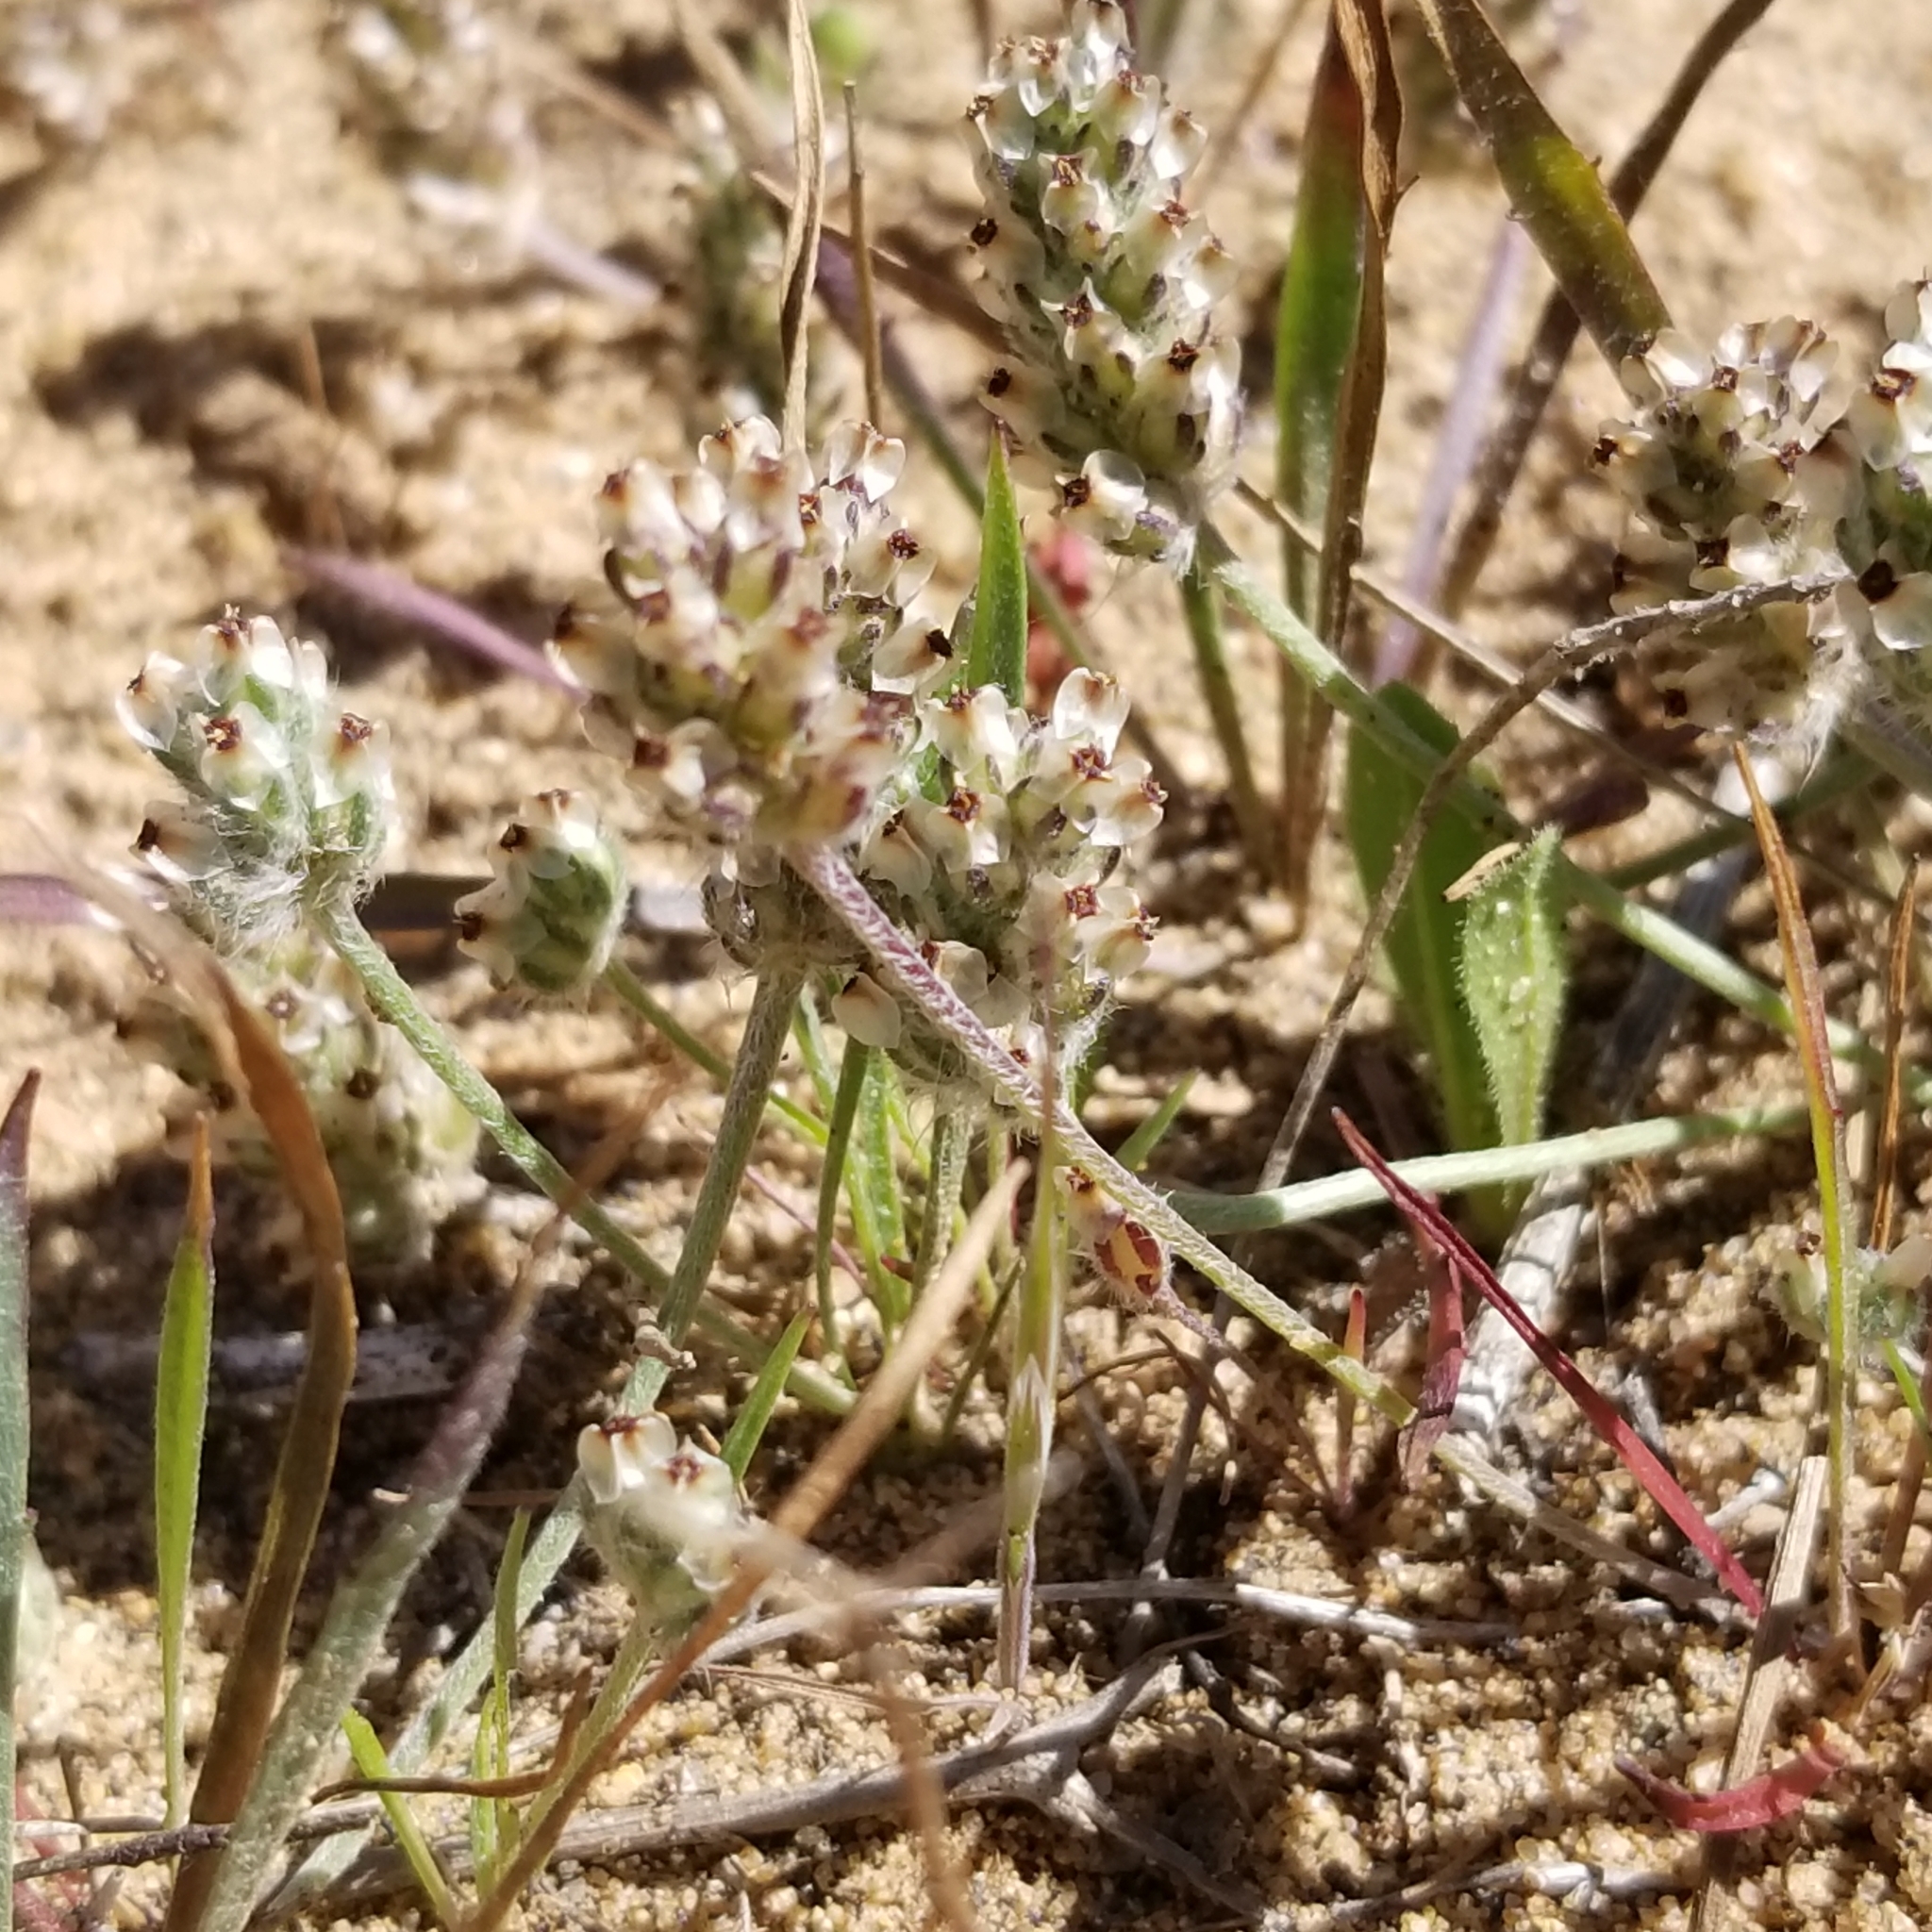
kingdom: Plantae
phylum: Tracheophyta
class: Magnoliopsida
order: Lamiales
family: Plantaginaceae
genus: Plantago
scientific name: Plantago erecta
